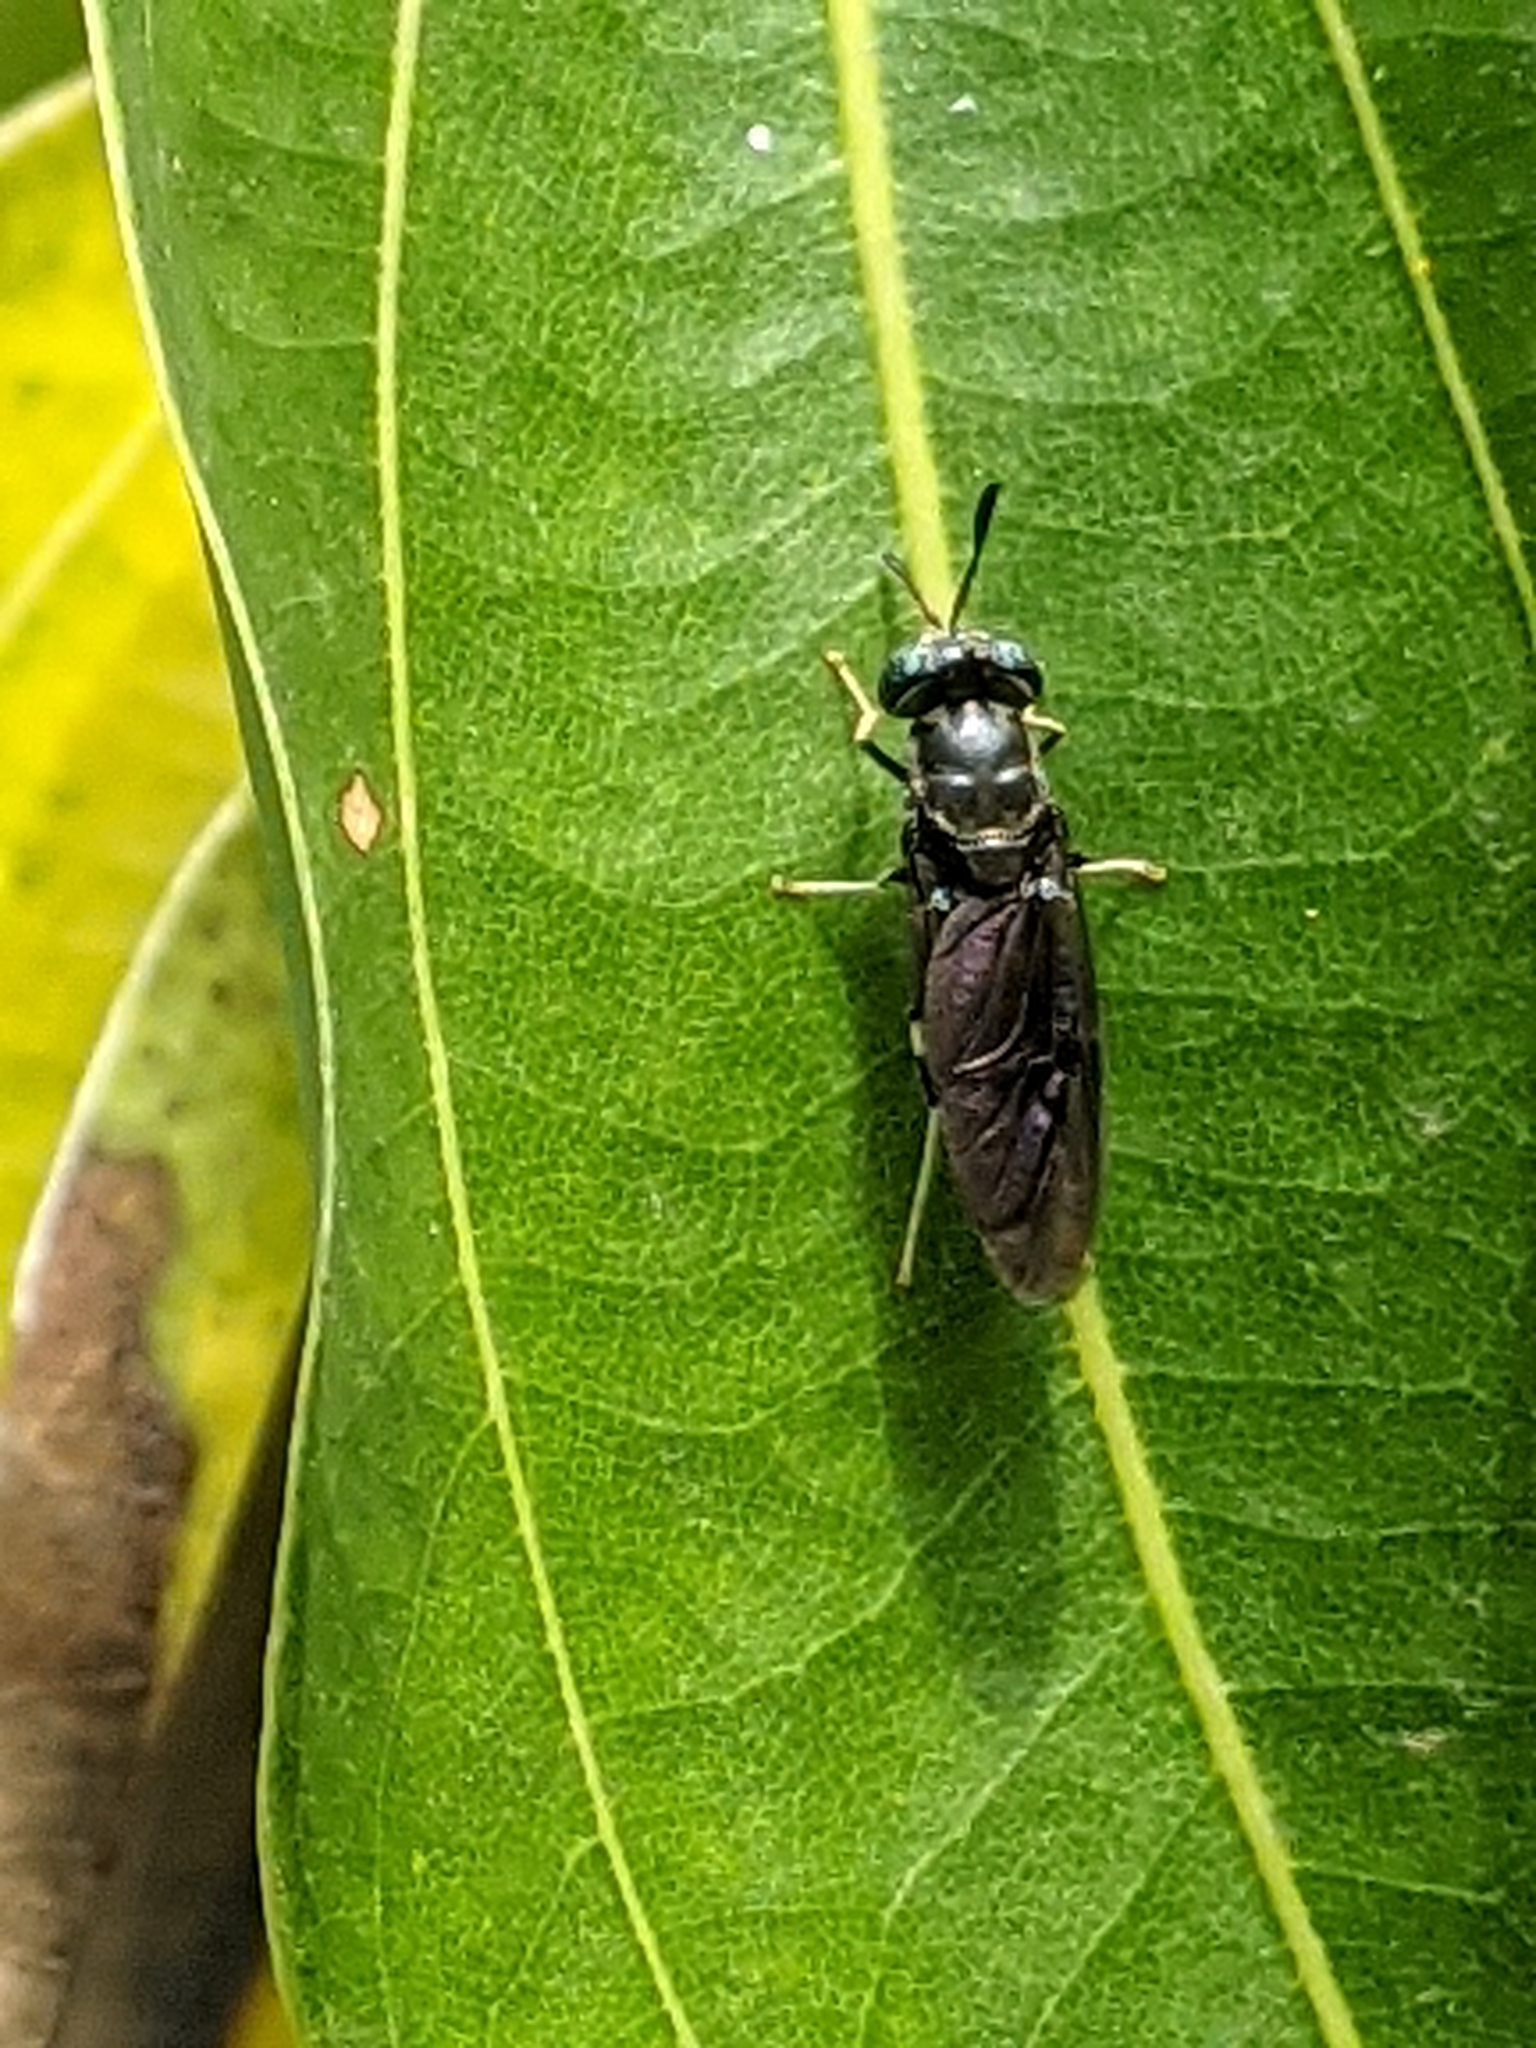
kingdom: Animalia
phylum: Arthropoda
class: Insecta
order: Diptera
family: Stratiomyidae
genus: Hermetia
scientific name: Hermetia illucens
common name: Black soldier fly
